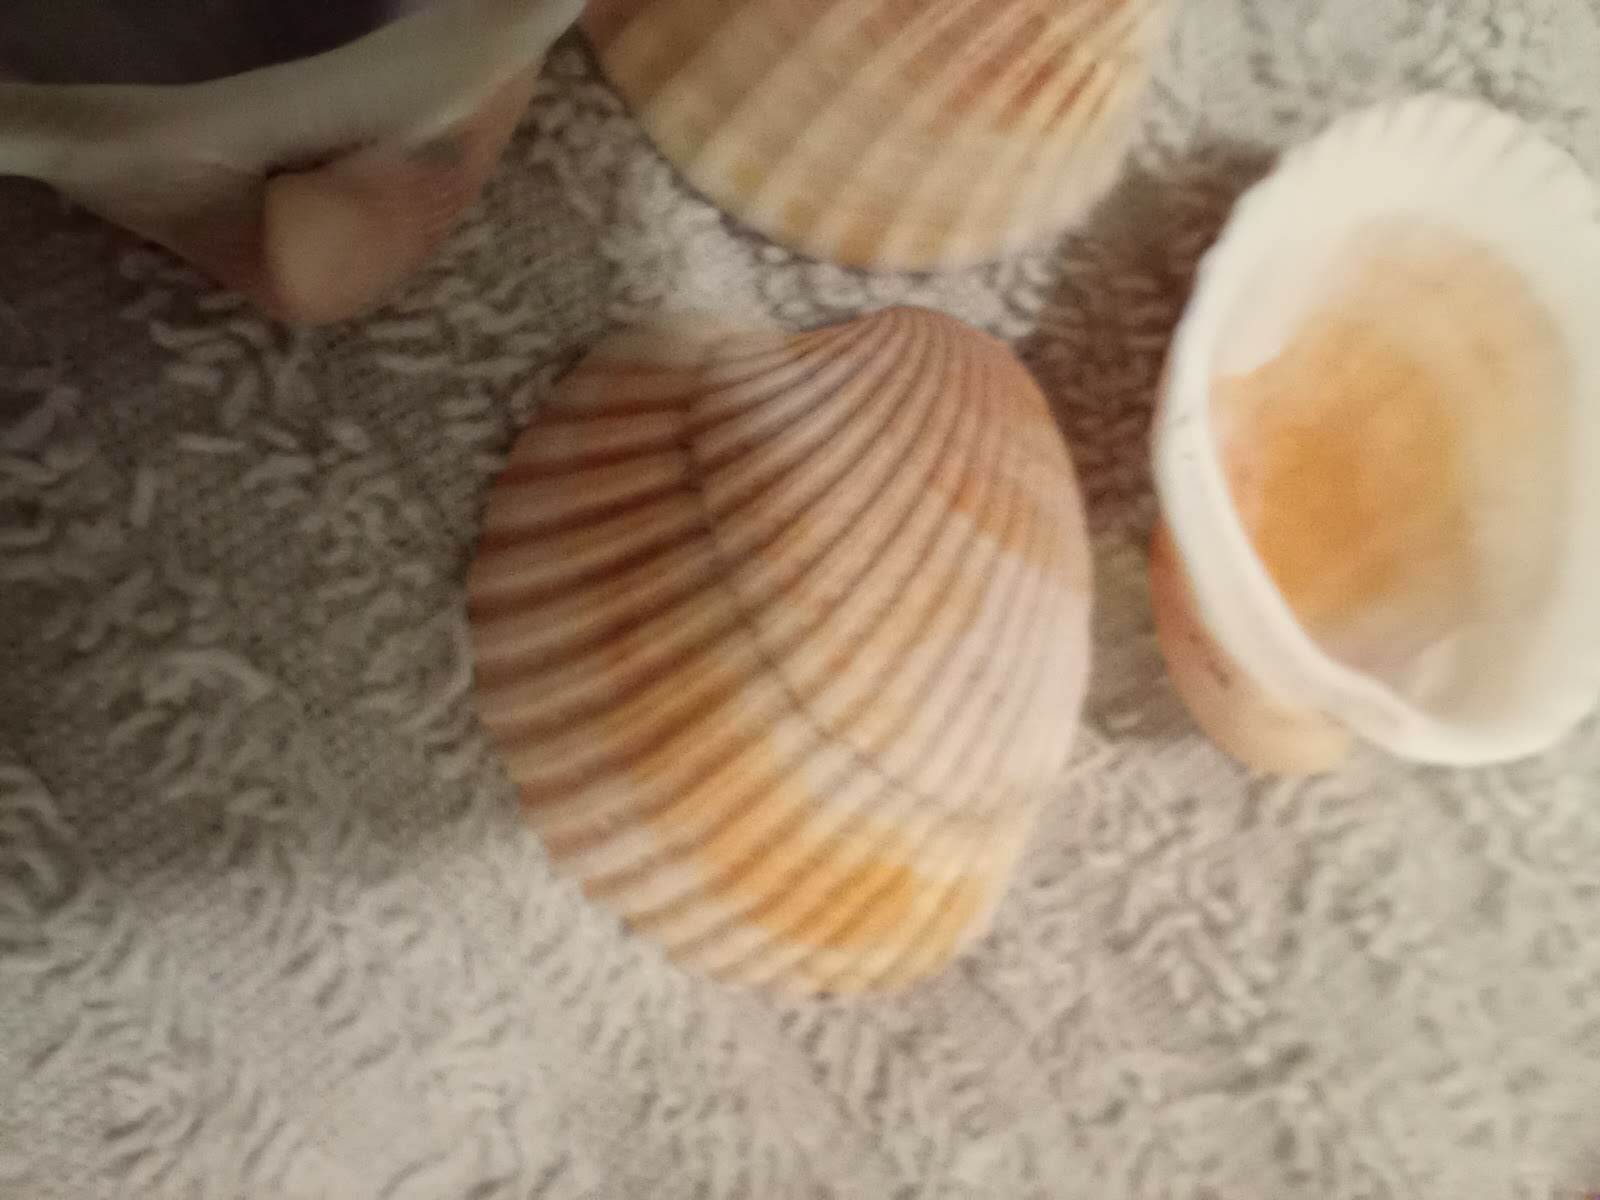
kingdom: Animalia
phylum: Mollusca
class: Bivalvia
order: Arcida
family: Arcidae
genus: Lunarca
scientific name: Lunarca ovalis
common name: Blood ark
